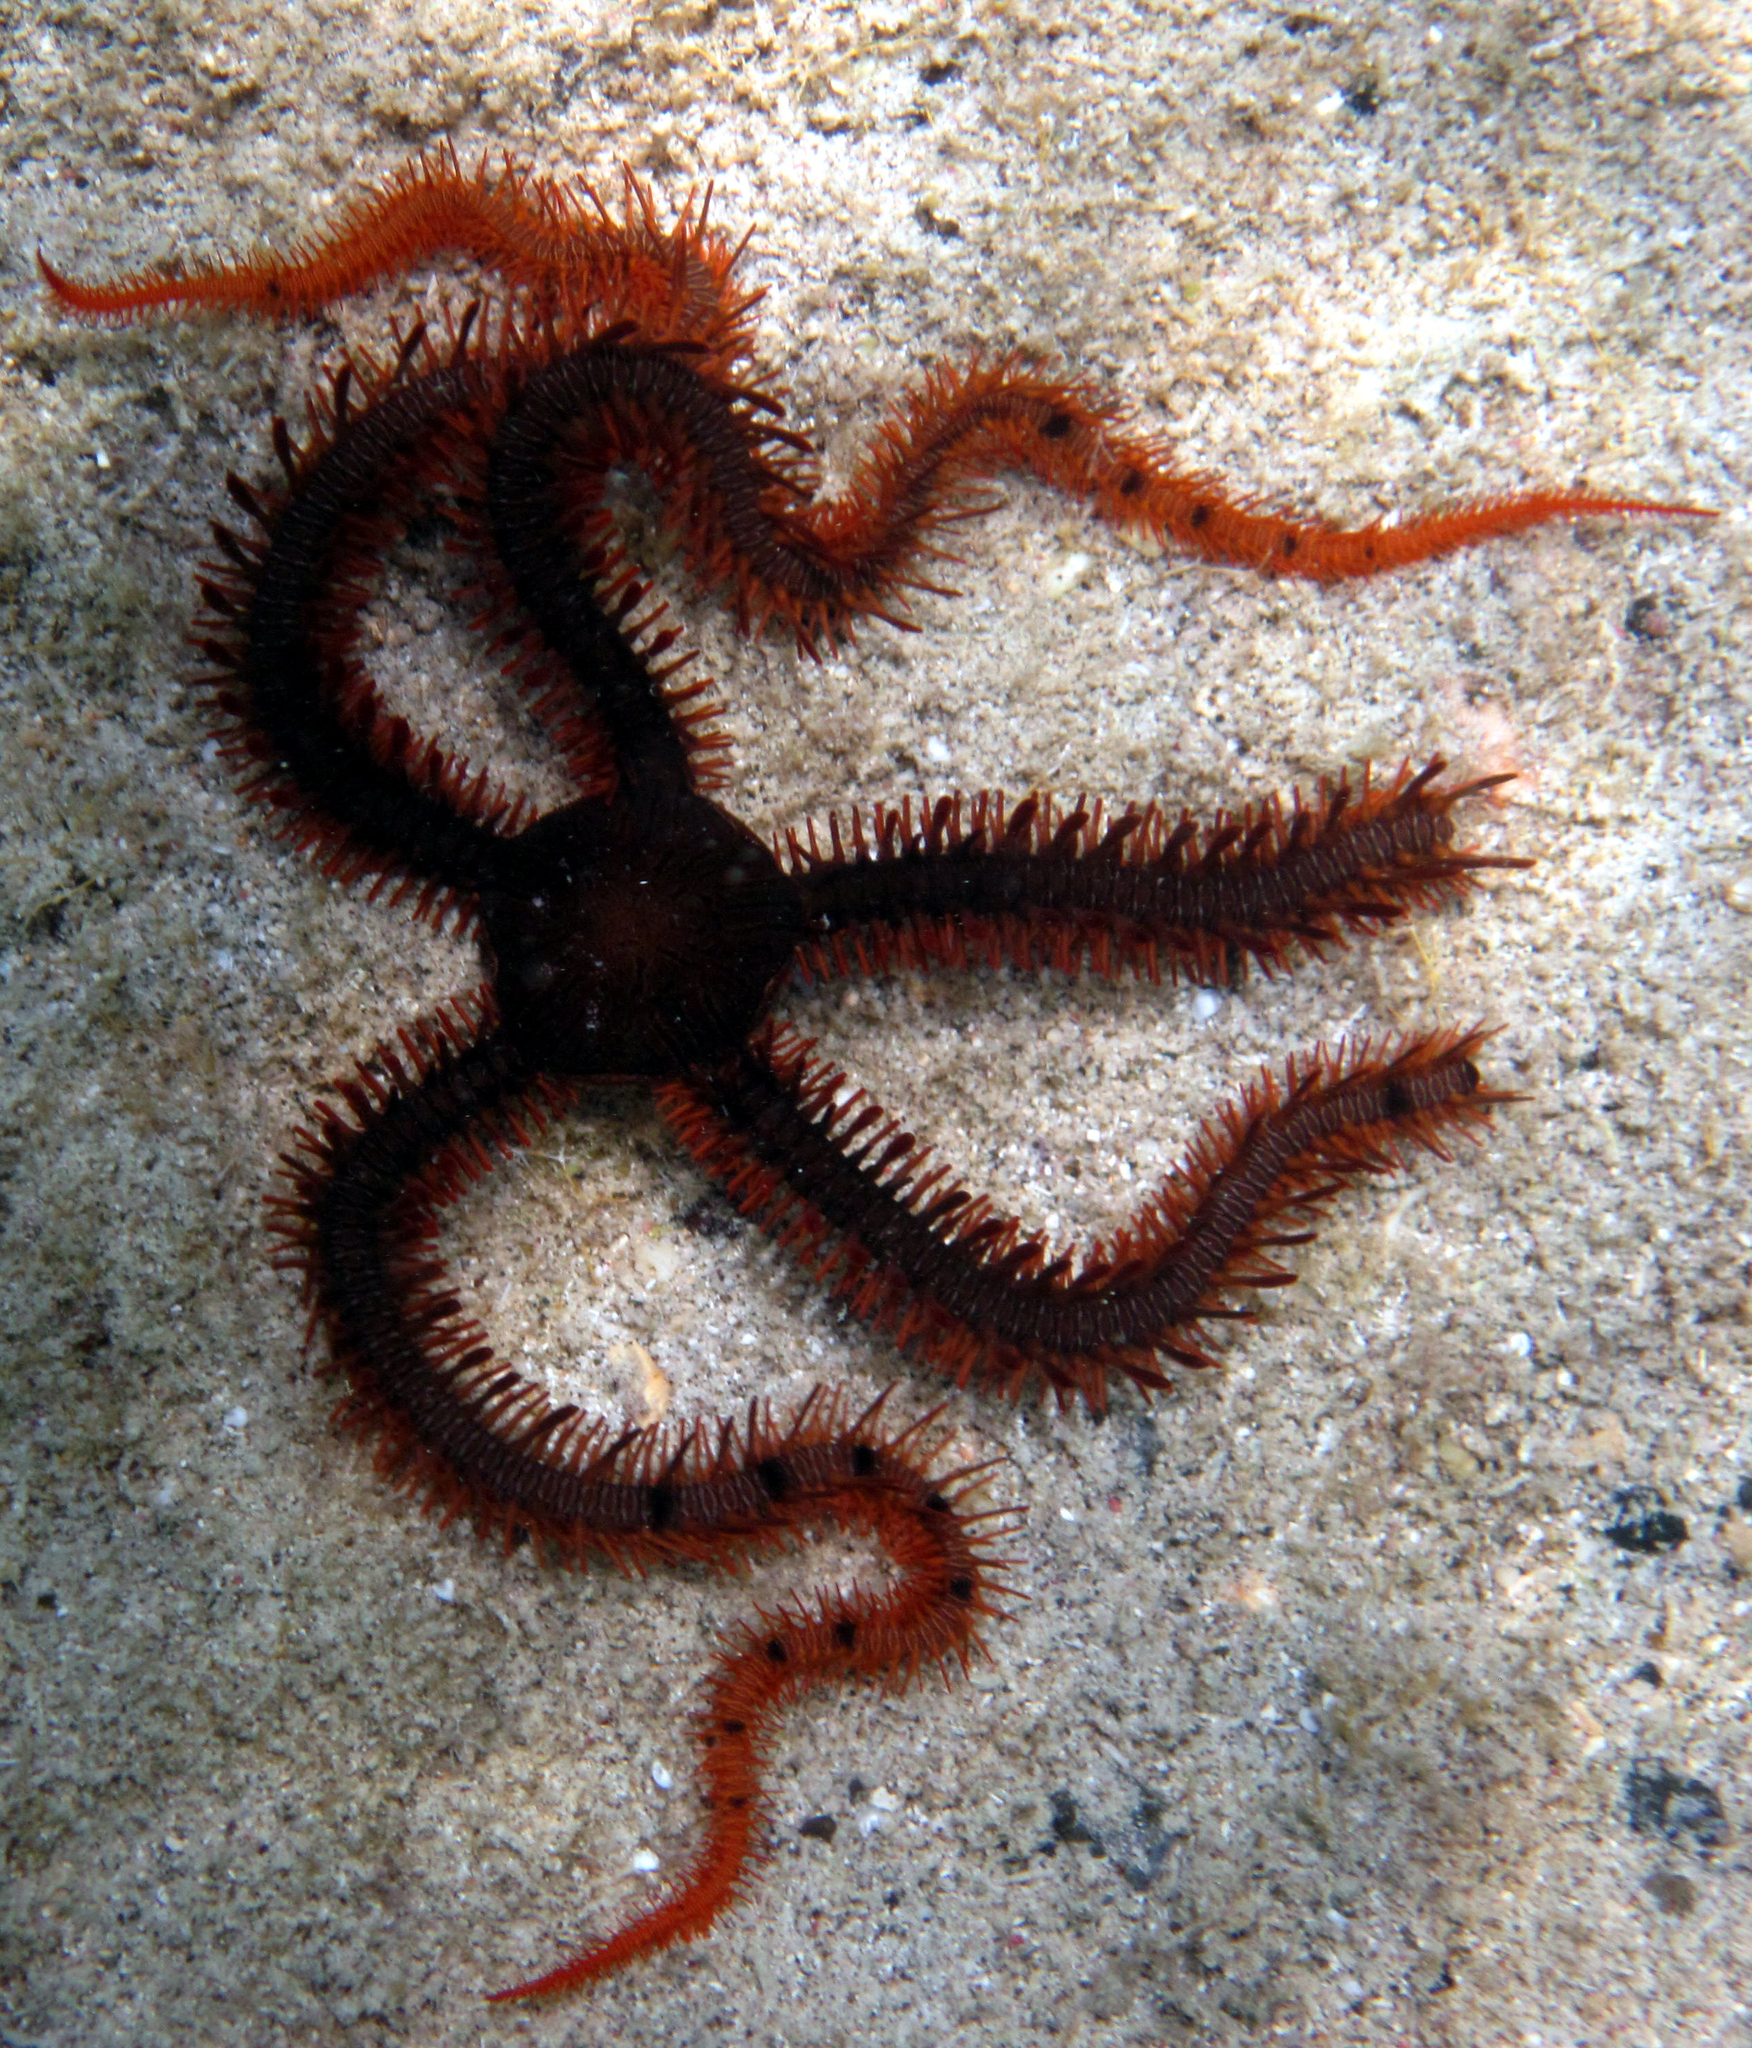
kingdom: Animalia
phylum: Echinodermata
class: Ophiuroidea
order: Ophiacanthida
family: Ophiocomidae
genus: Ophiomastix
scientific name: Ophiomastix wendtii
